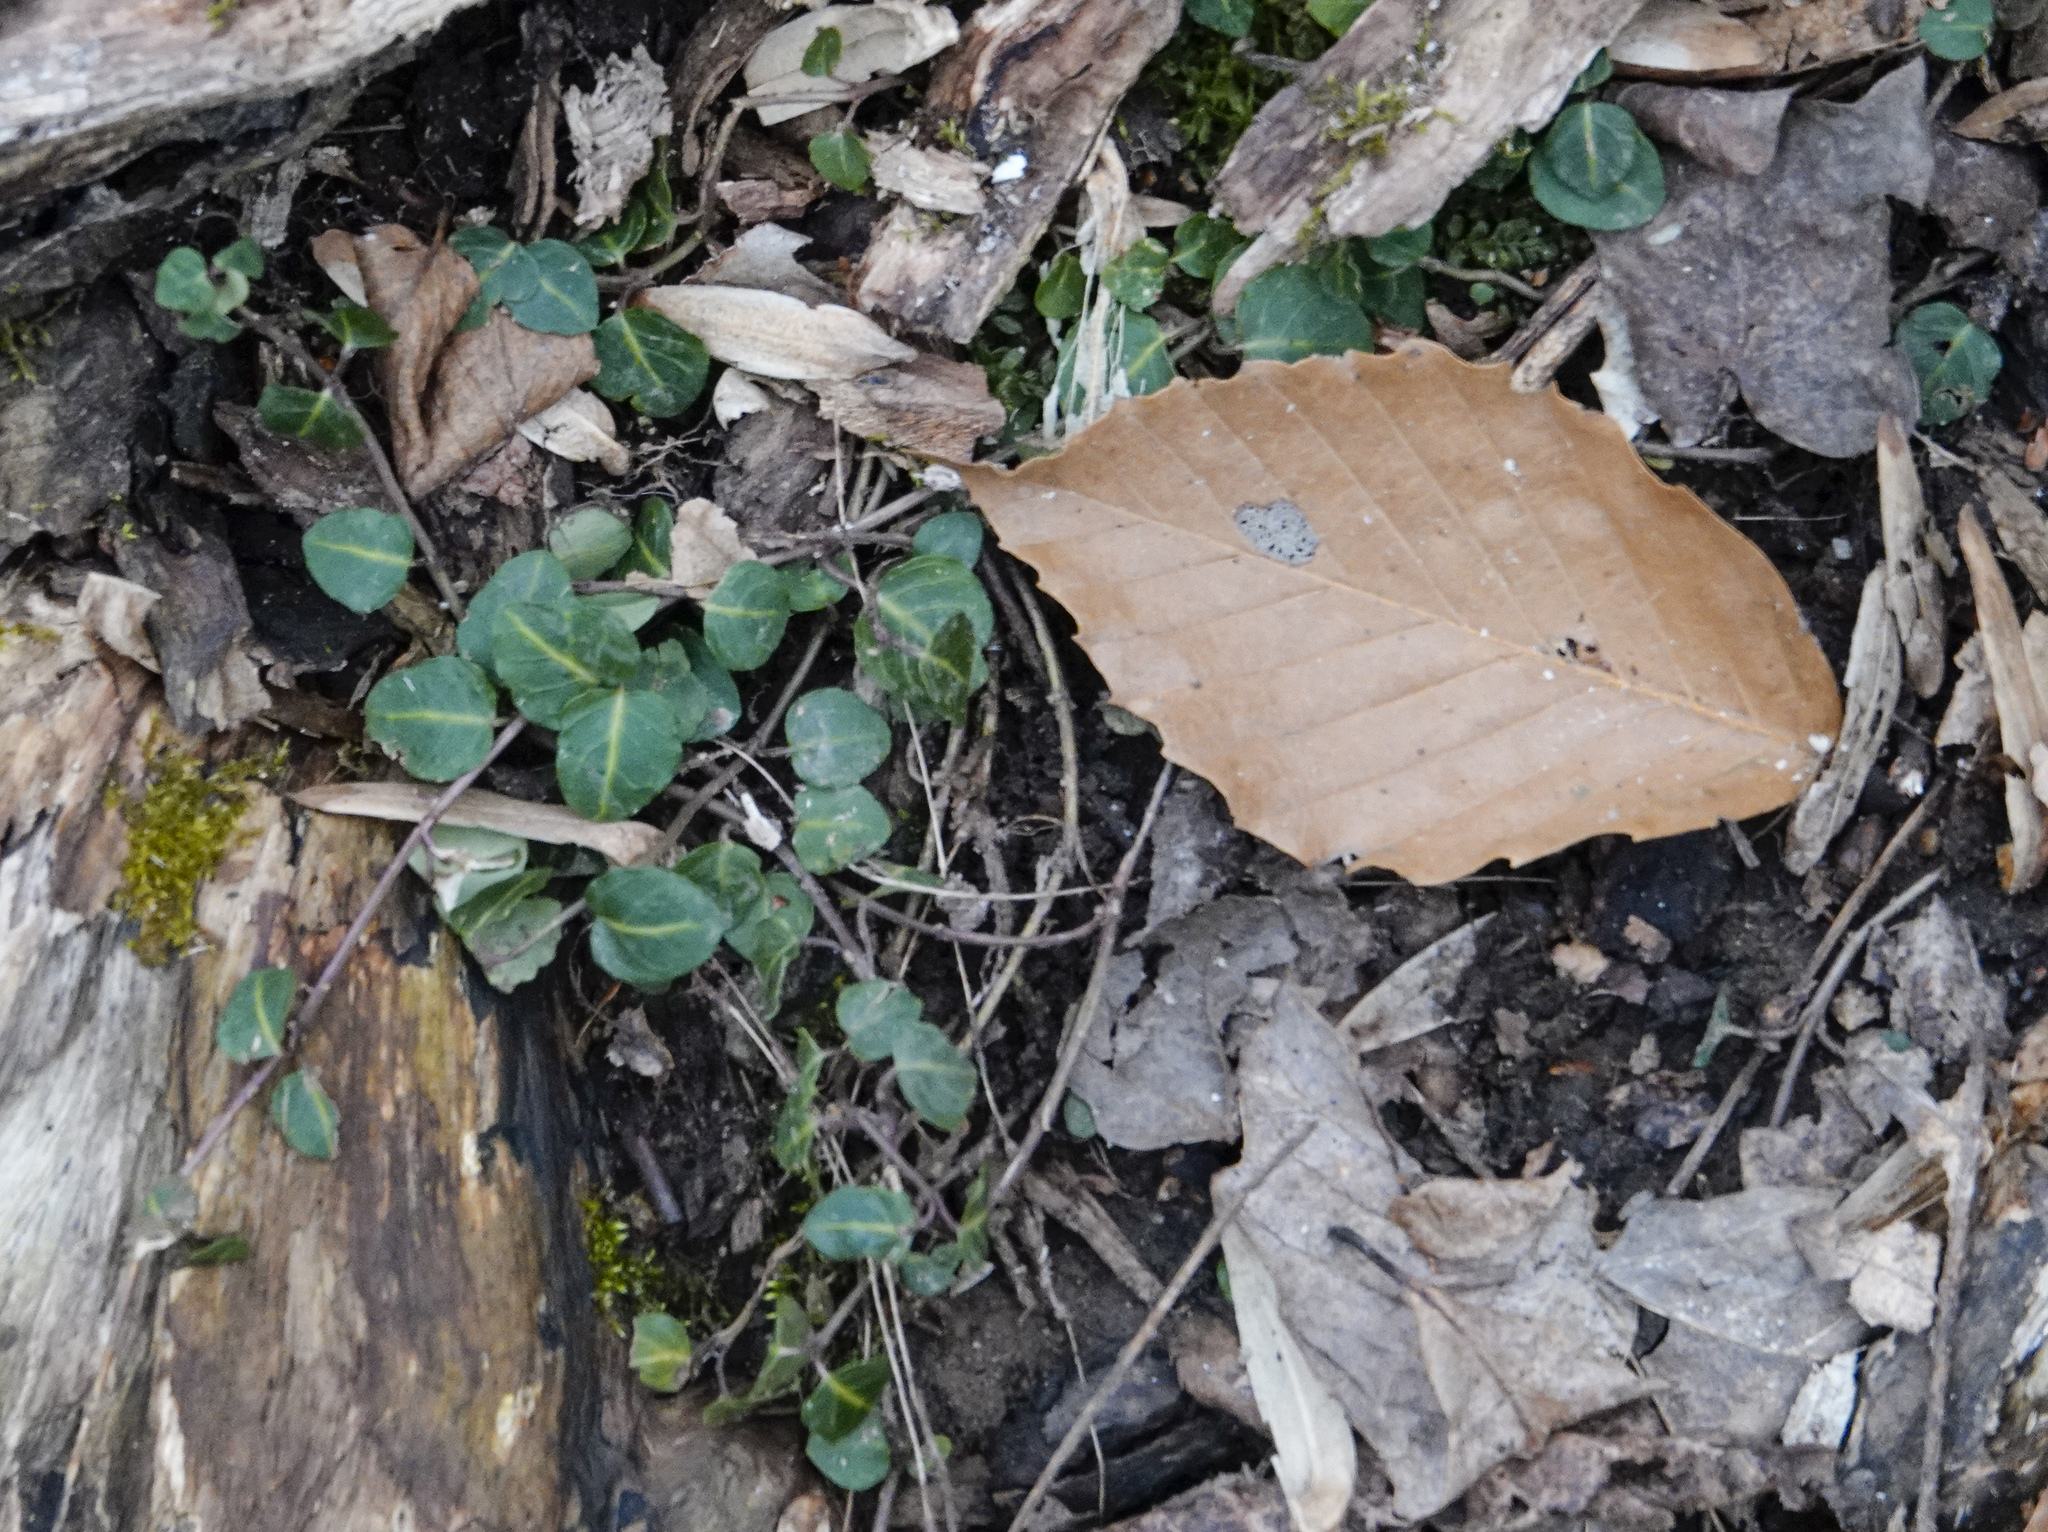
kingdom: Plantae
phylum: Tracheophyta
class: Magnoliopsida
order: Gentianales
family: Rubiaceae
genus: Mitchella
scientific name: Mitchella repens
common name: Partridge-berry
